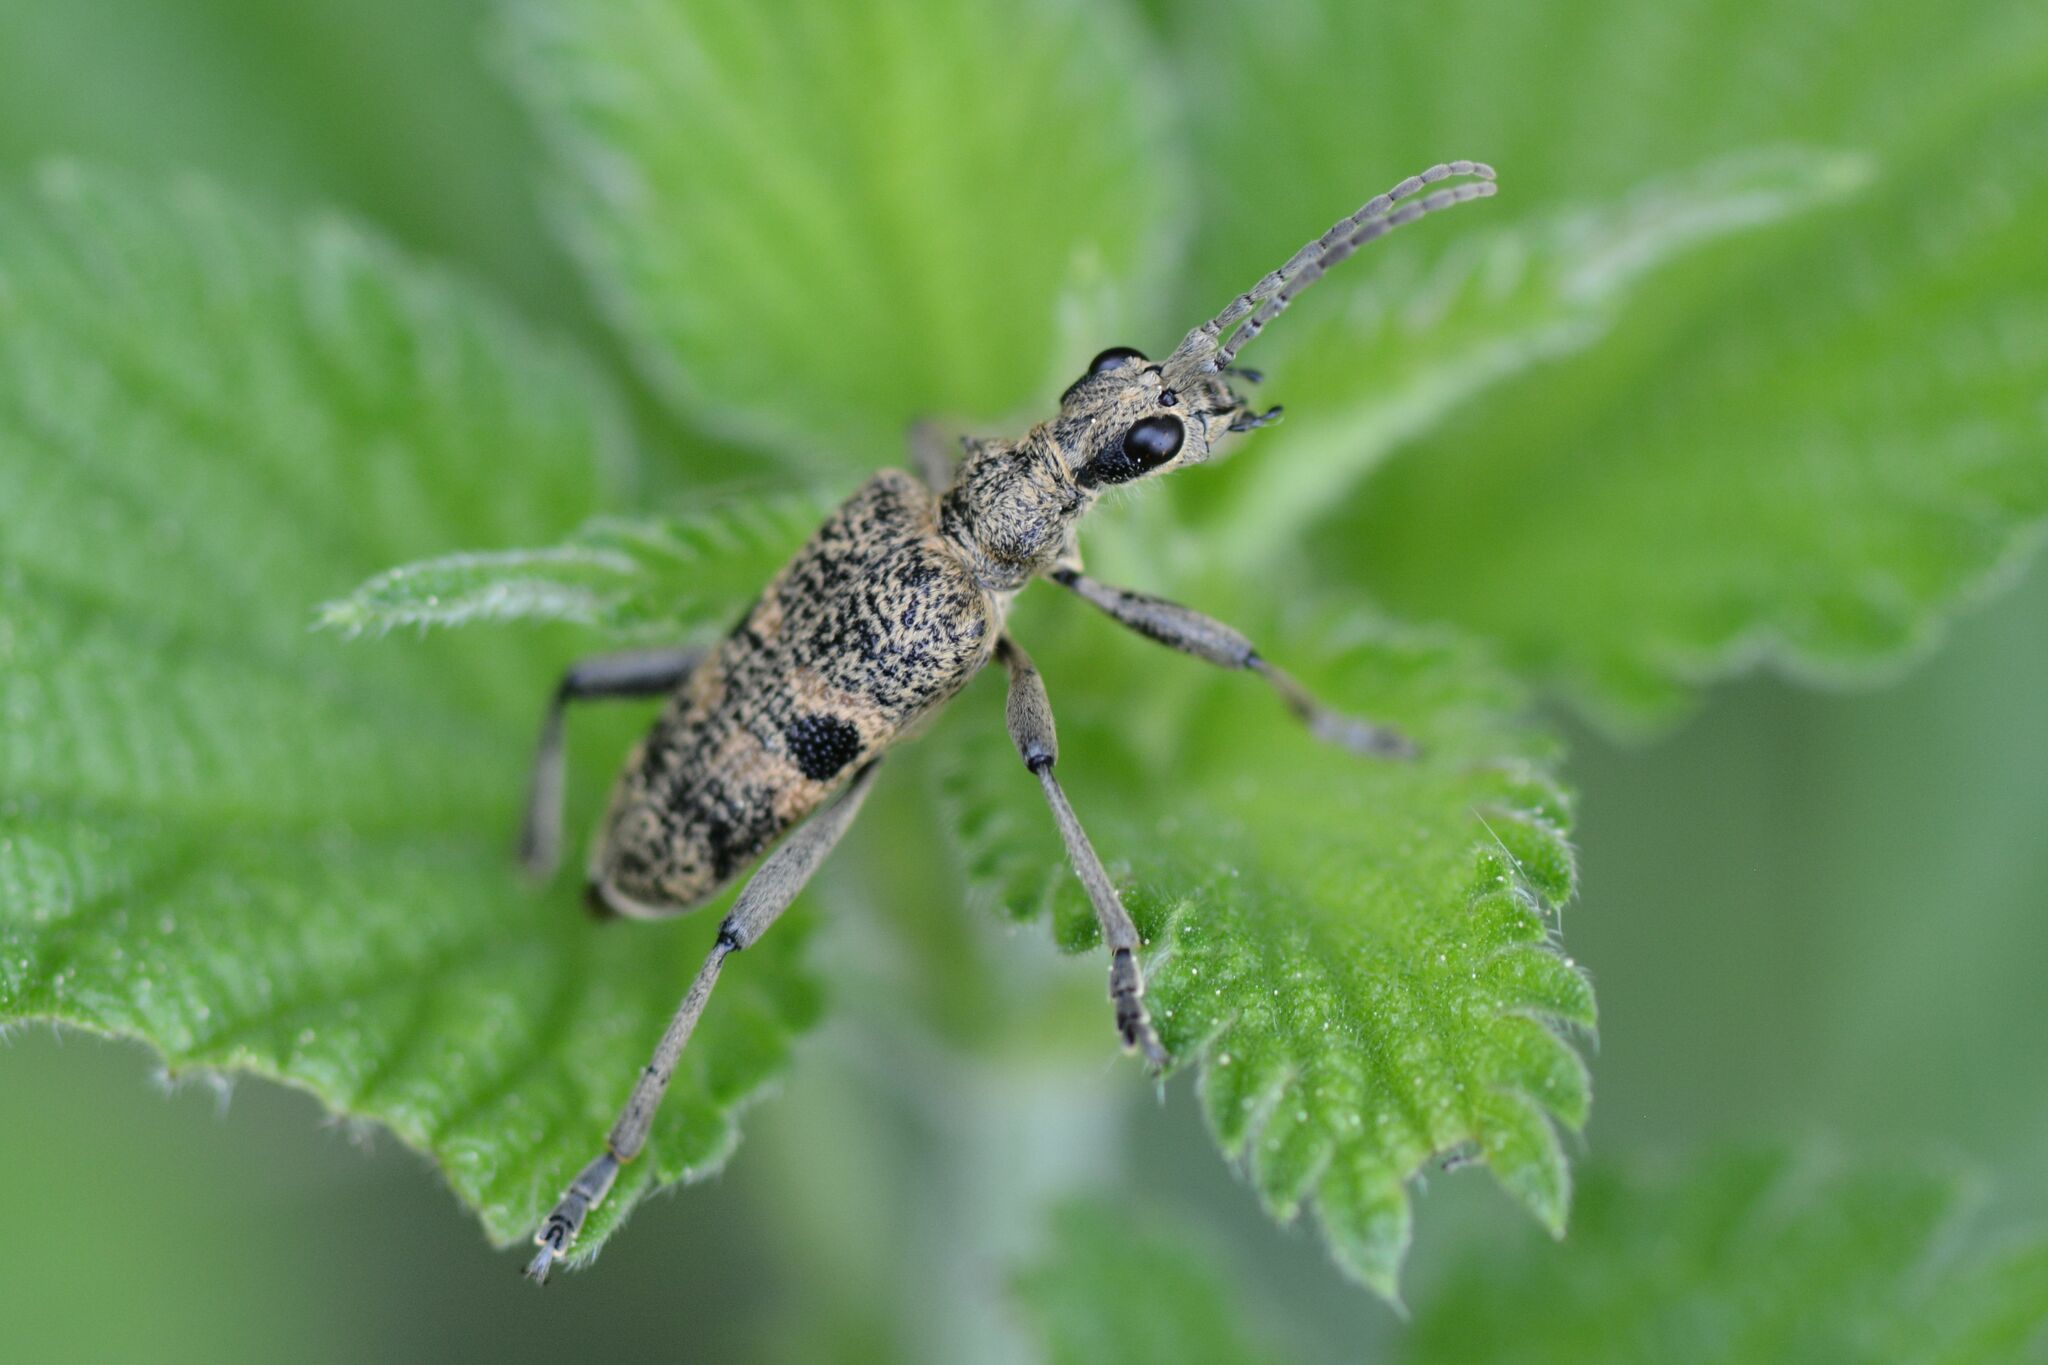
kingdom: Animalia
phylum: Arthropoda
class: Insecta
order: Coleoptera
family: Cerambycidae
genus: Rhagium
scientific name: Rhagium mordax
